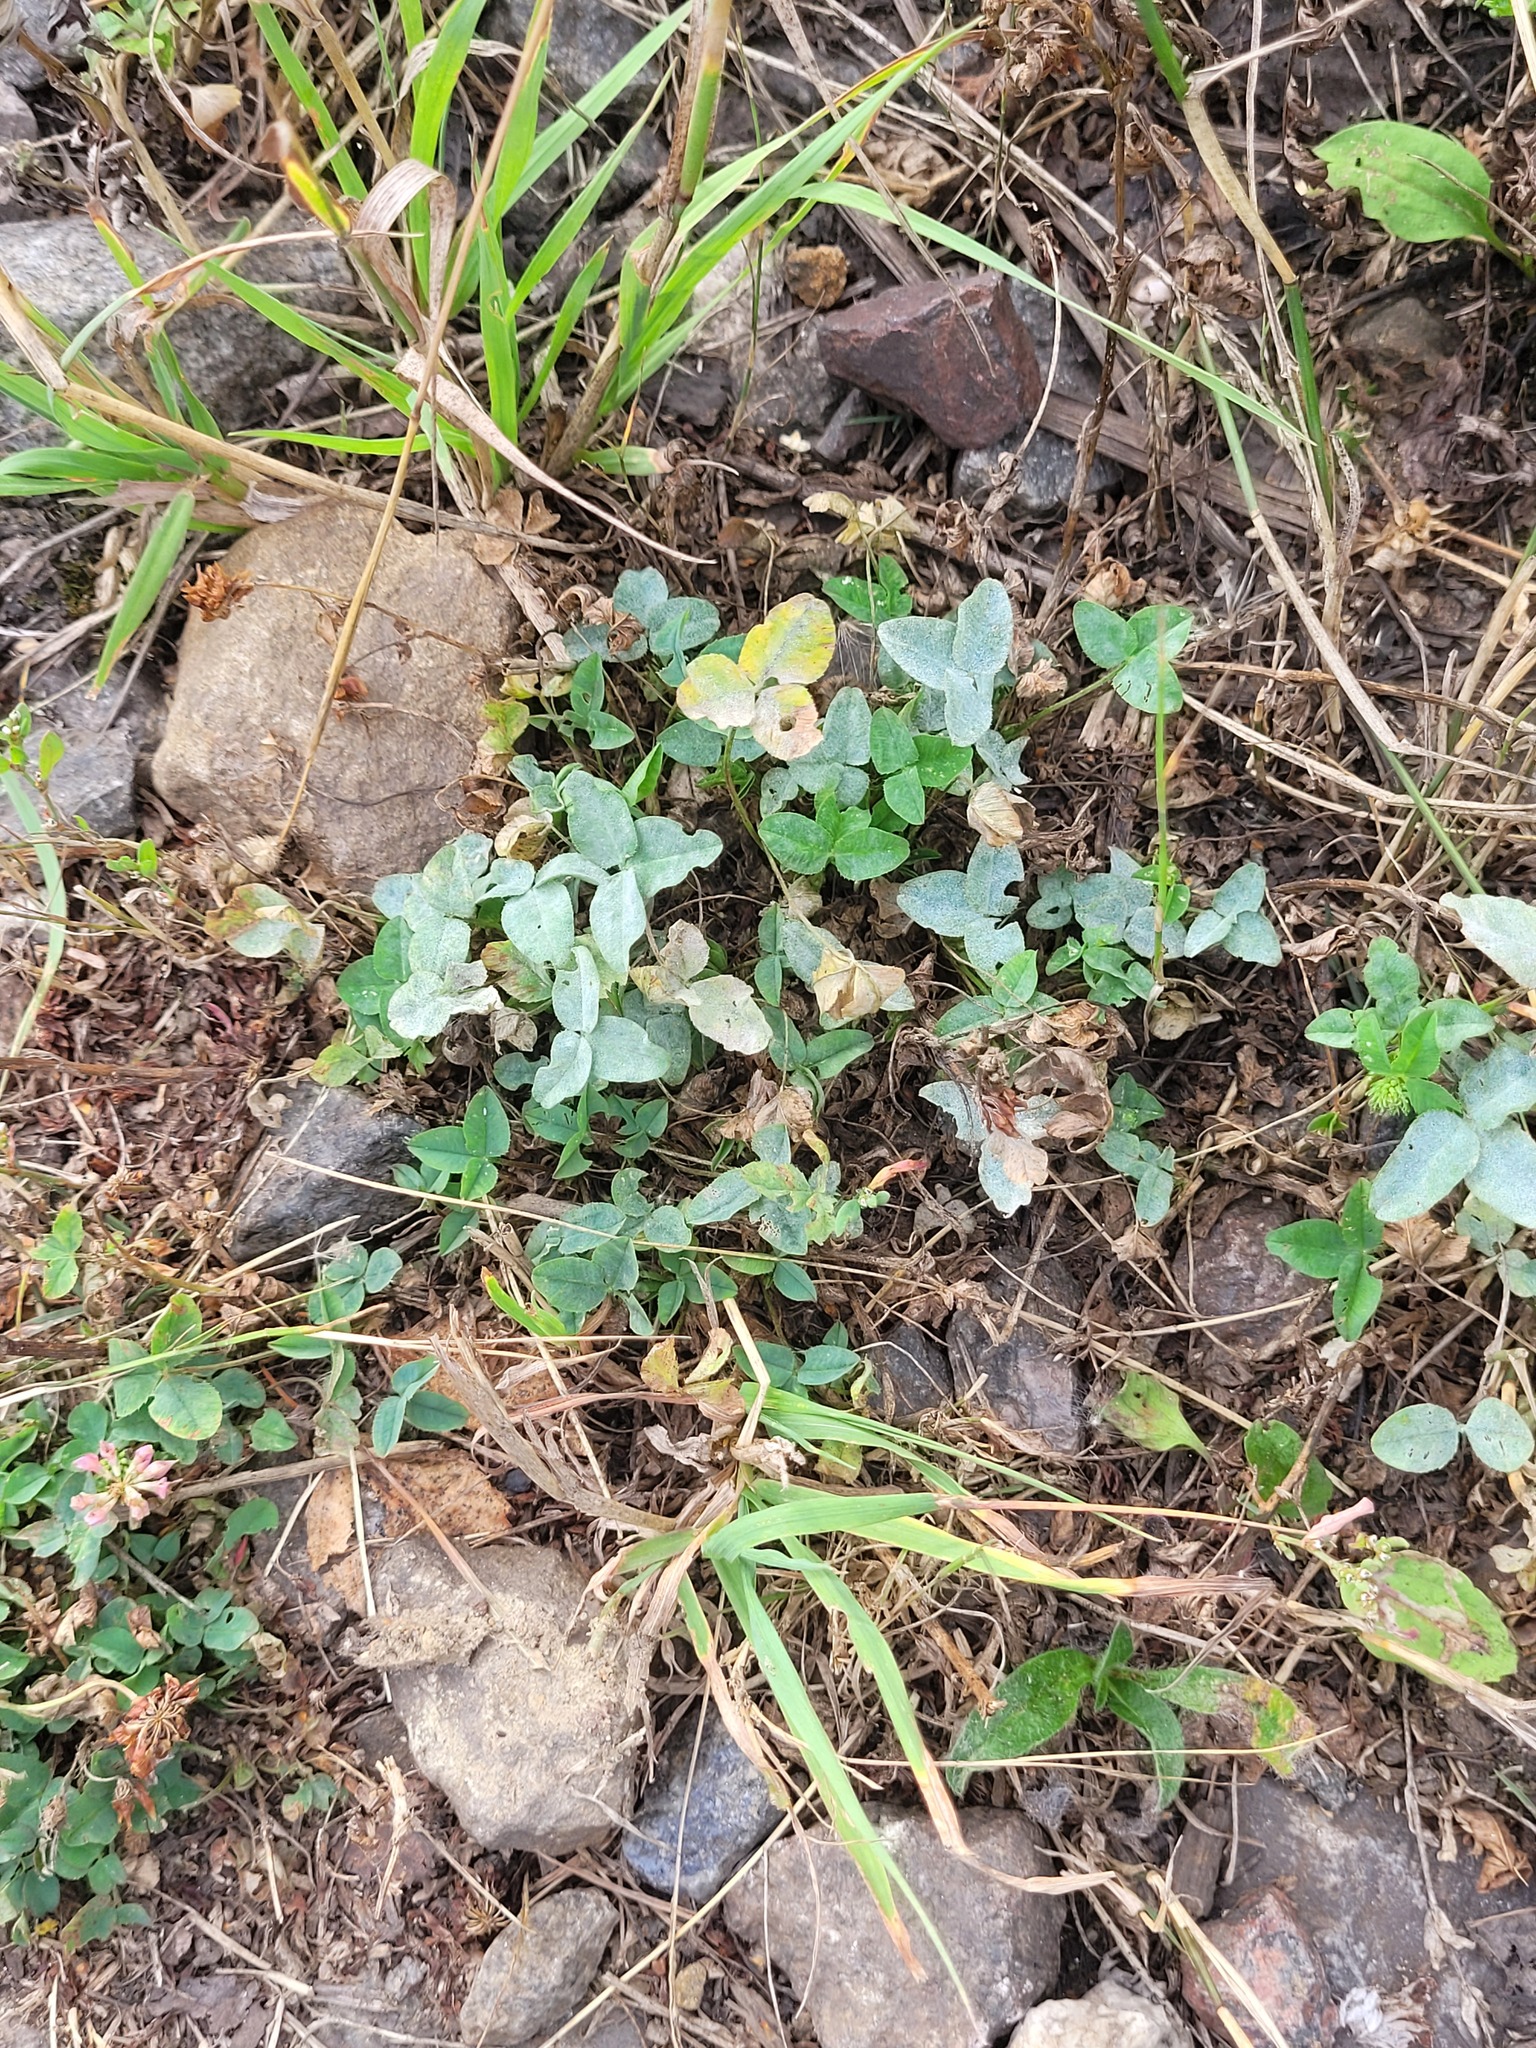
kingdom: Plantae
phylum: Tracheophyta
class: Magnoliopsida
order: Fabales
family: Fabaceae
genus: Trifolium
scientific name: Trifolium hybridum
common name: Alsike clover
